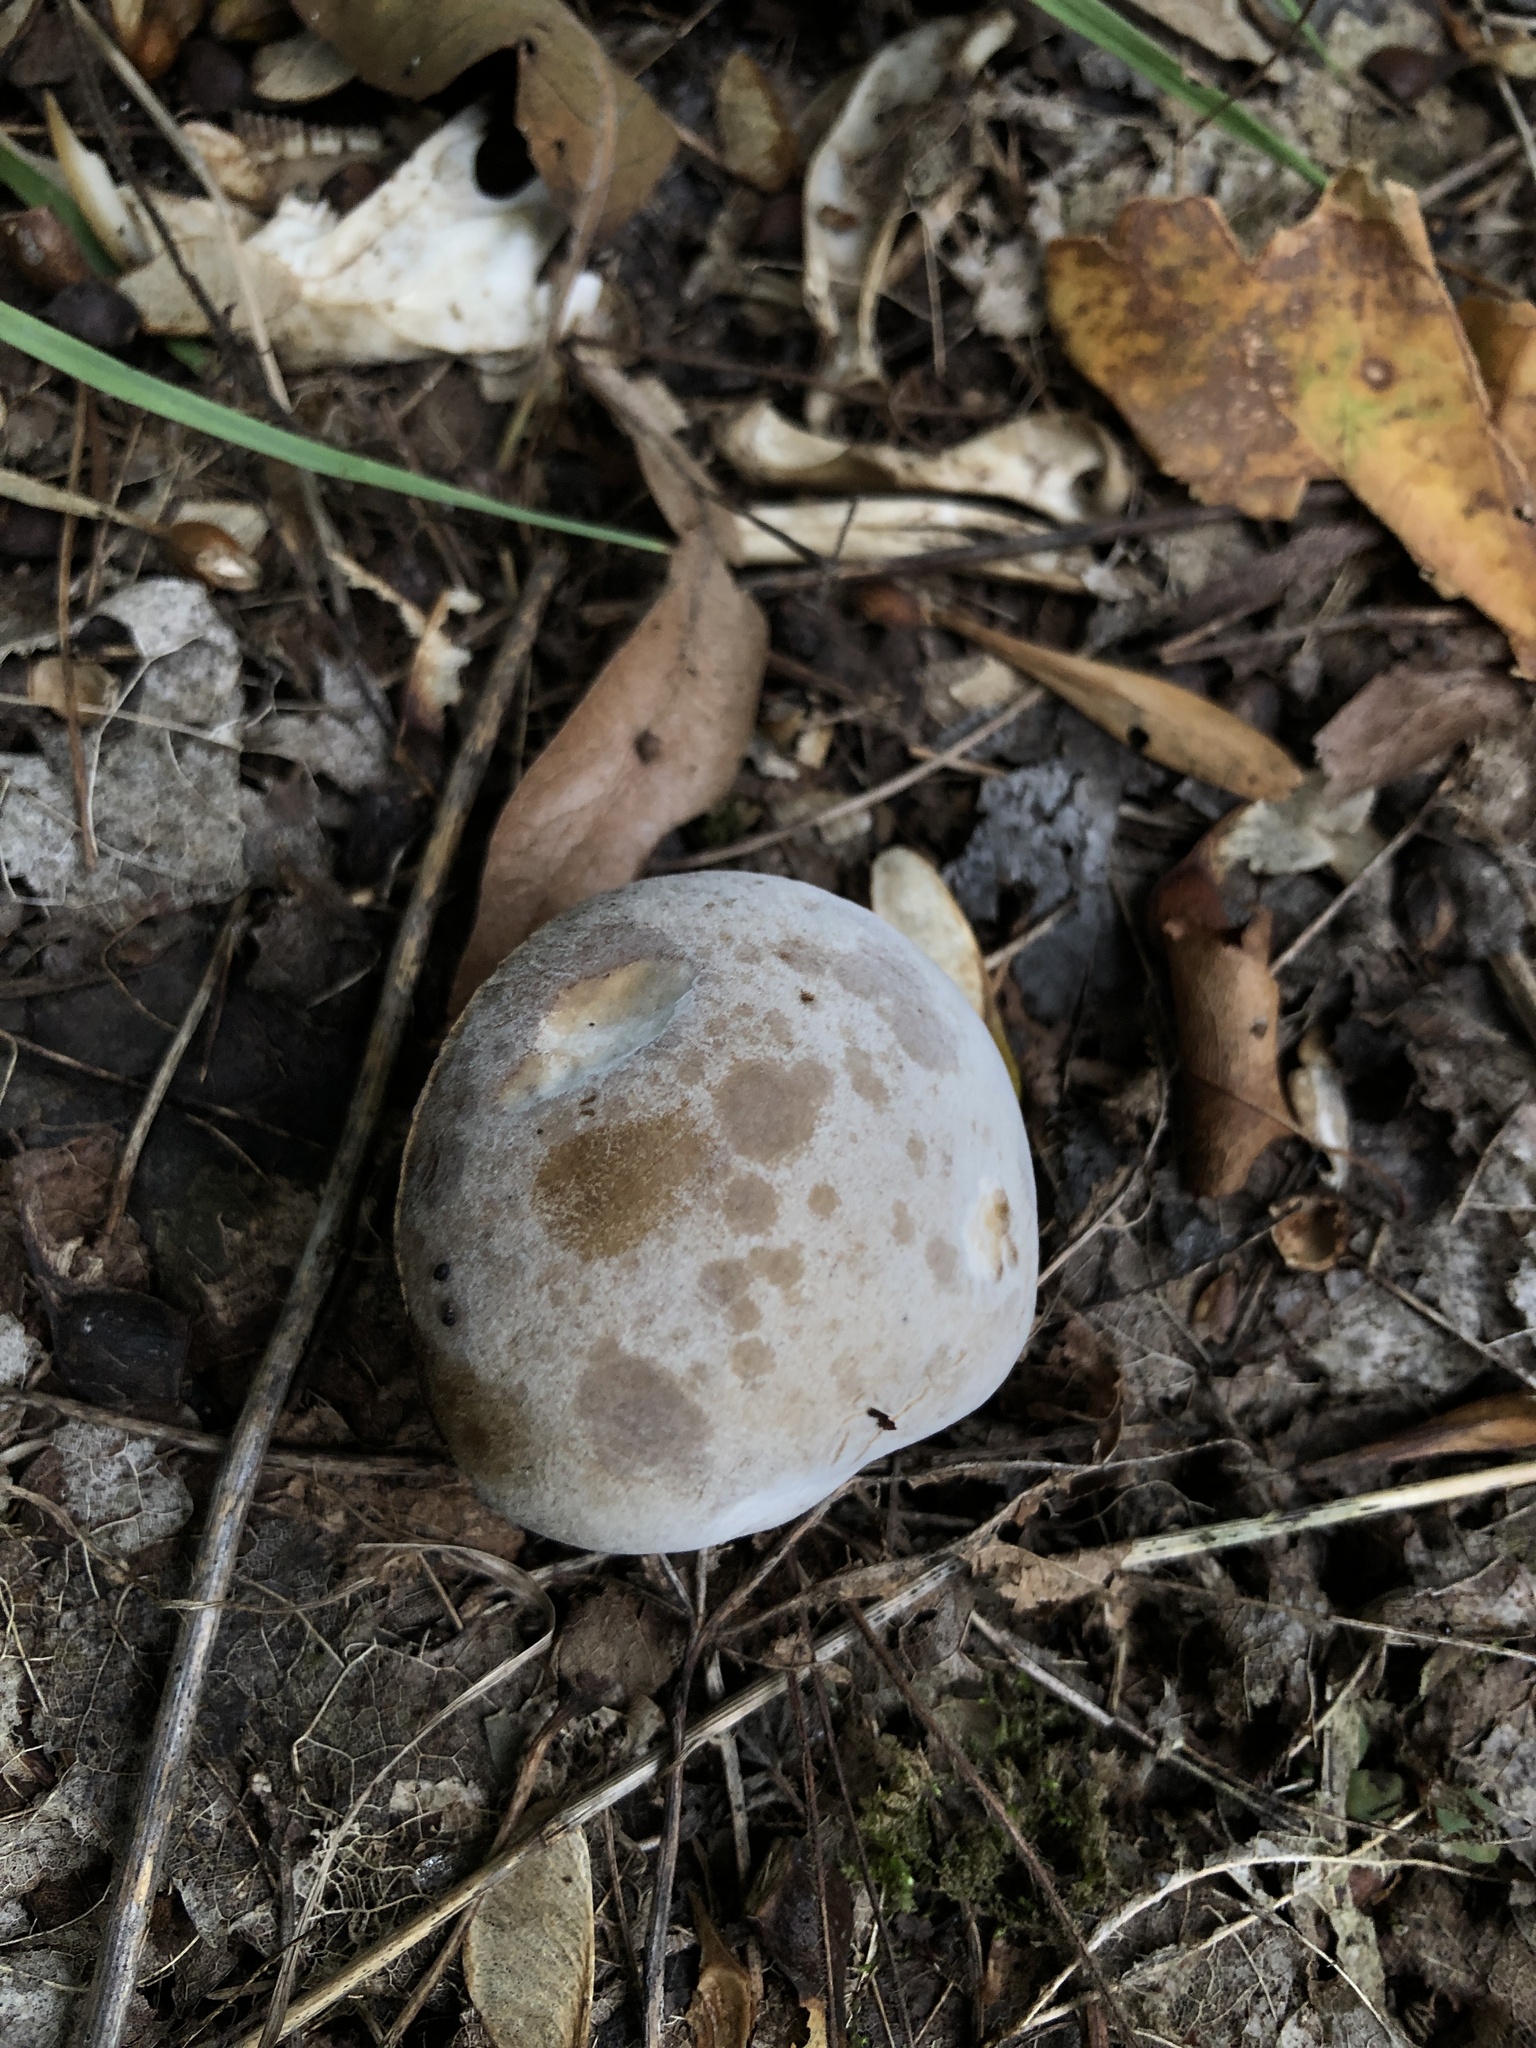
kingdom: Fungi
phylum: Ascomycota
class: Sordariomycetes
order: Hypocreales
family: Hypocreaceae
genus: Hypomyces
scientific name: Hypomyces chrysospermus
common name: Bolete mould
